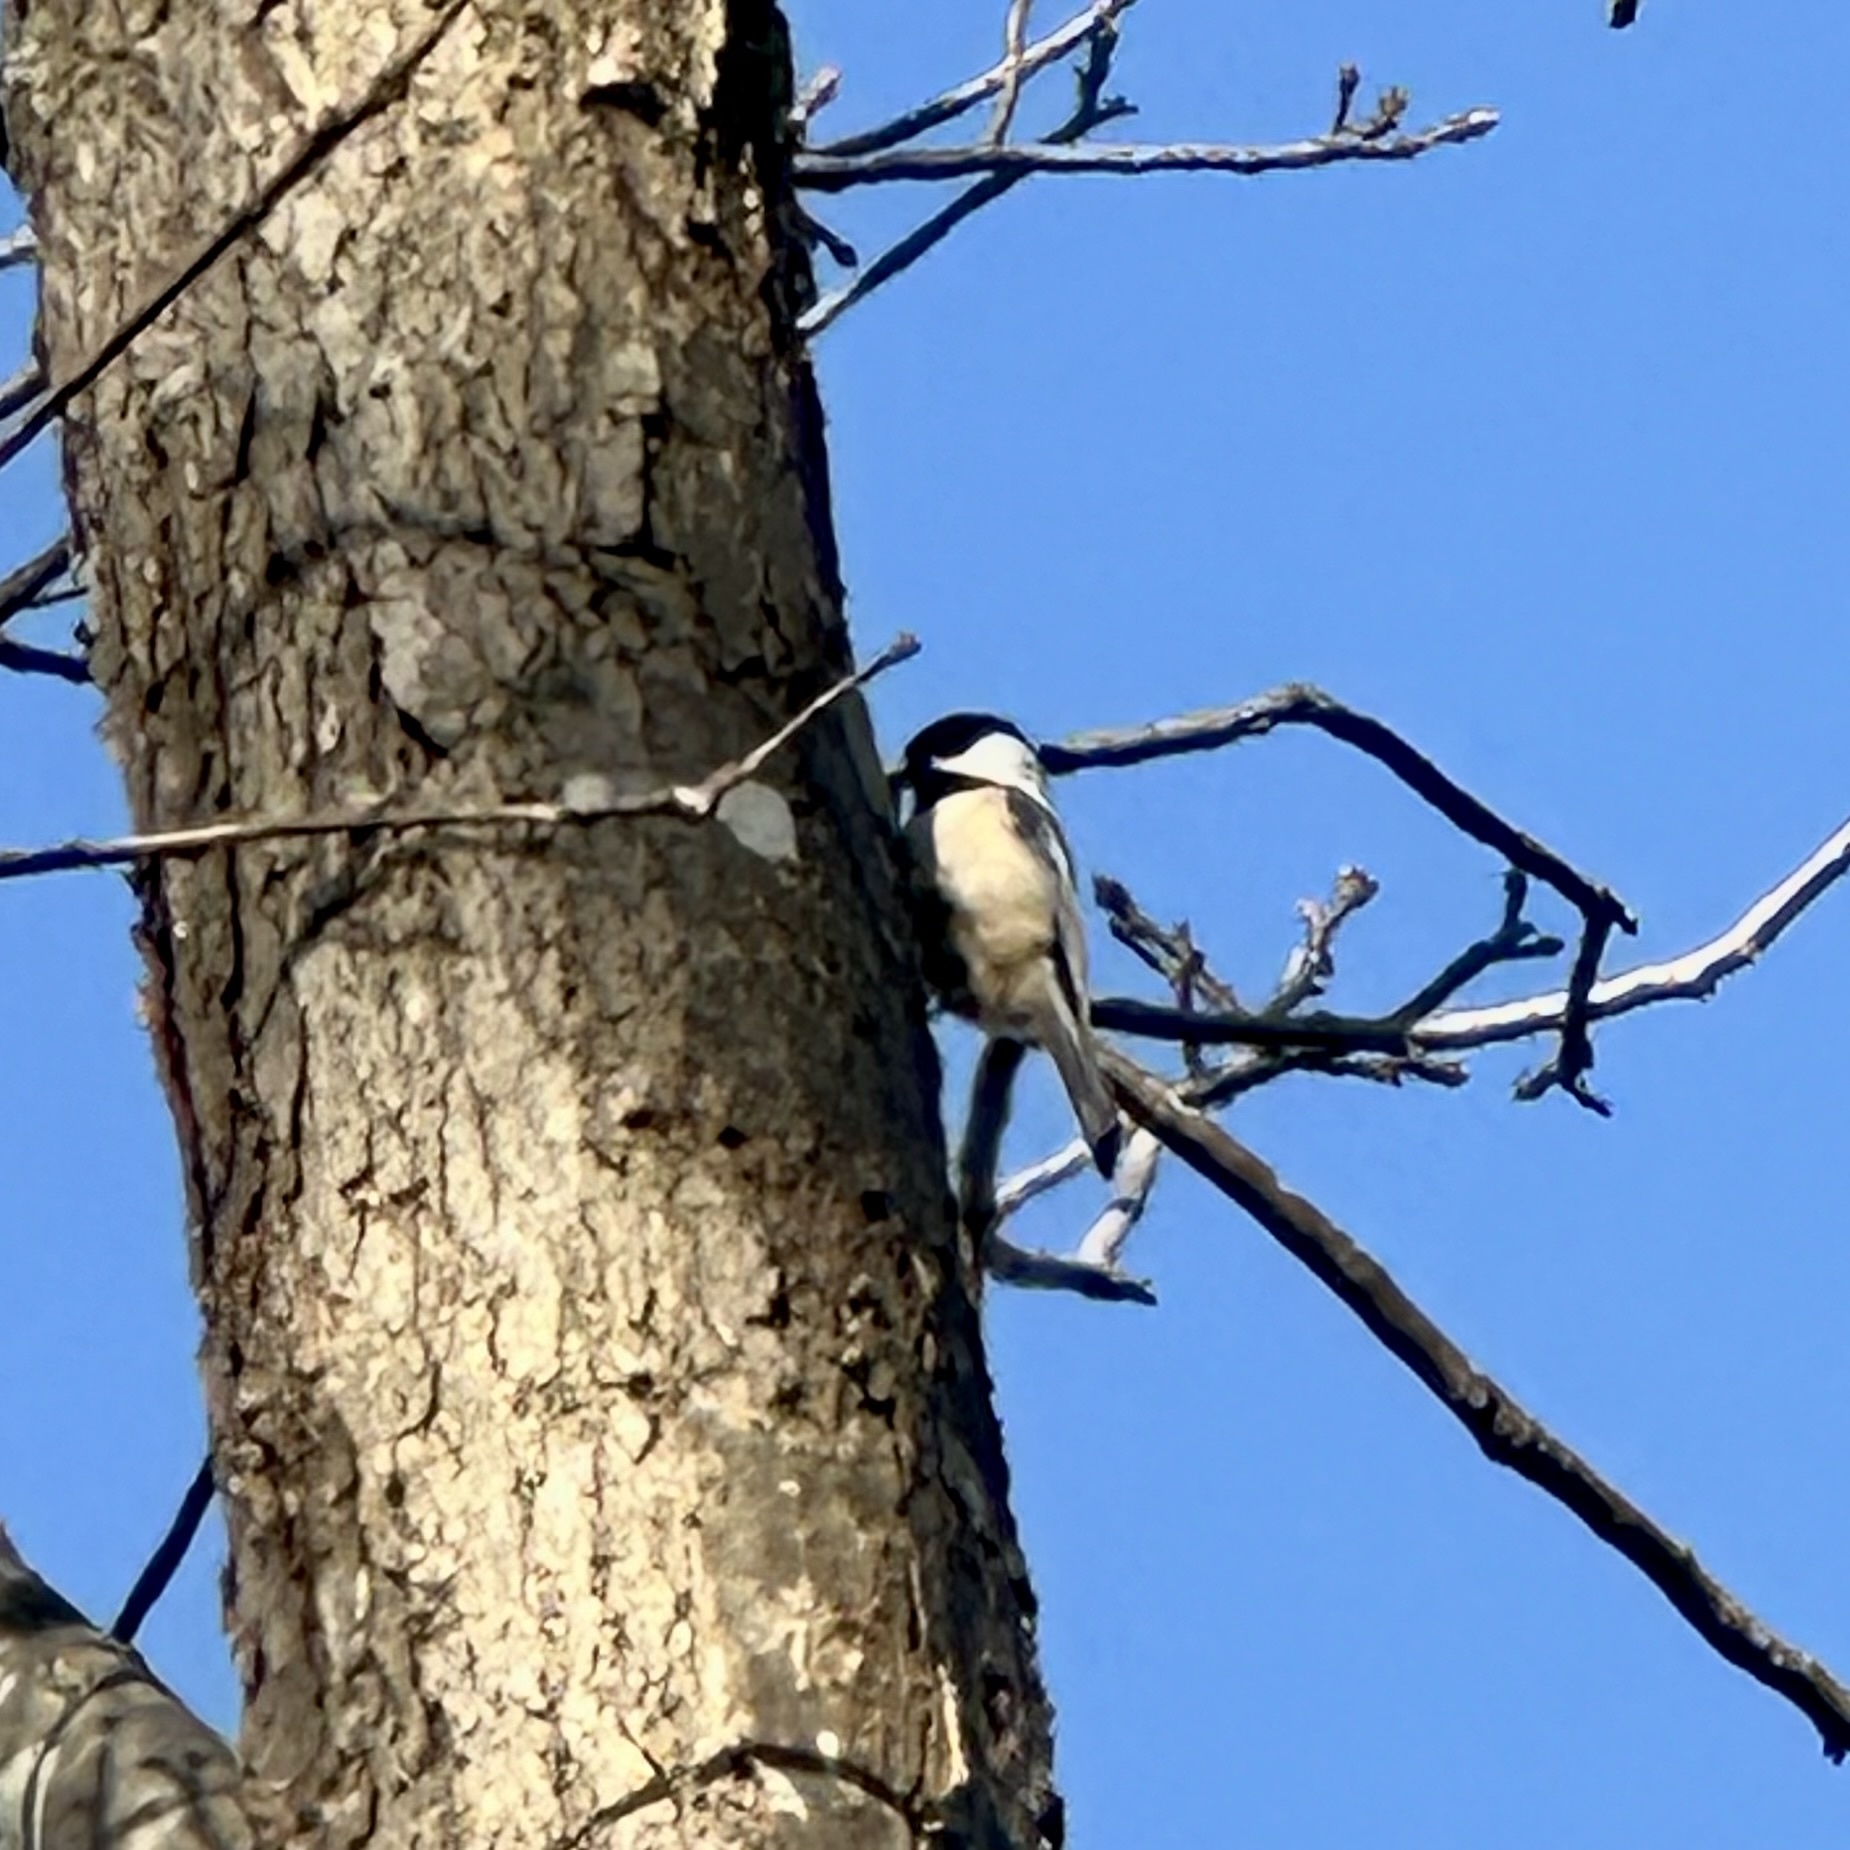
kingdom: Animalia
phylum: Chordata
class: Aves
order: Passeriformes
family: Paridae
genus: Poecile
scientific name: Poecile atricapillus
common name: Black-capped chickadee
